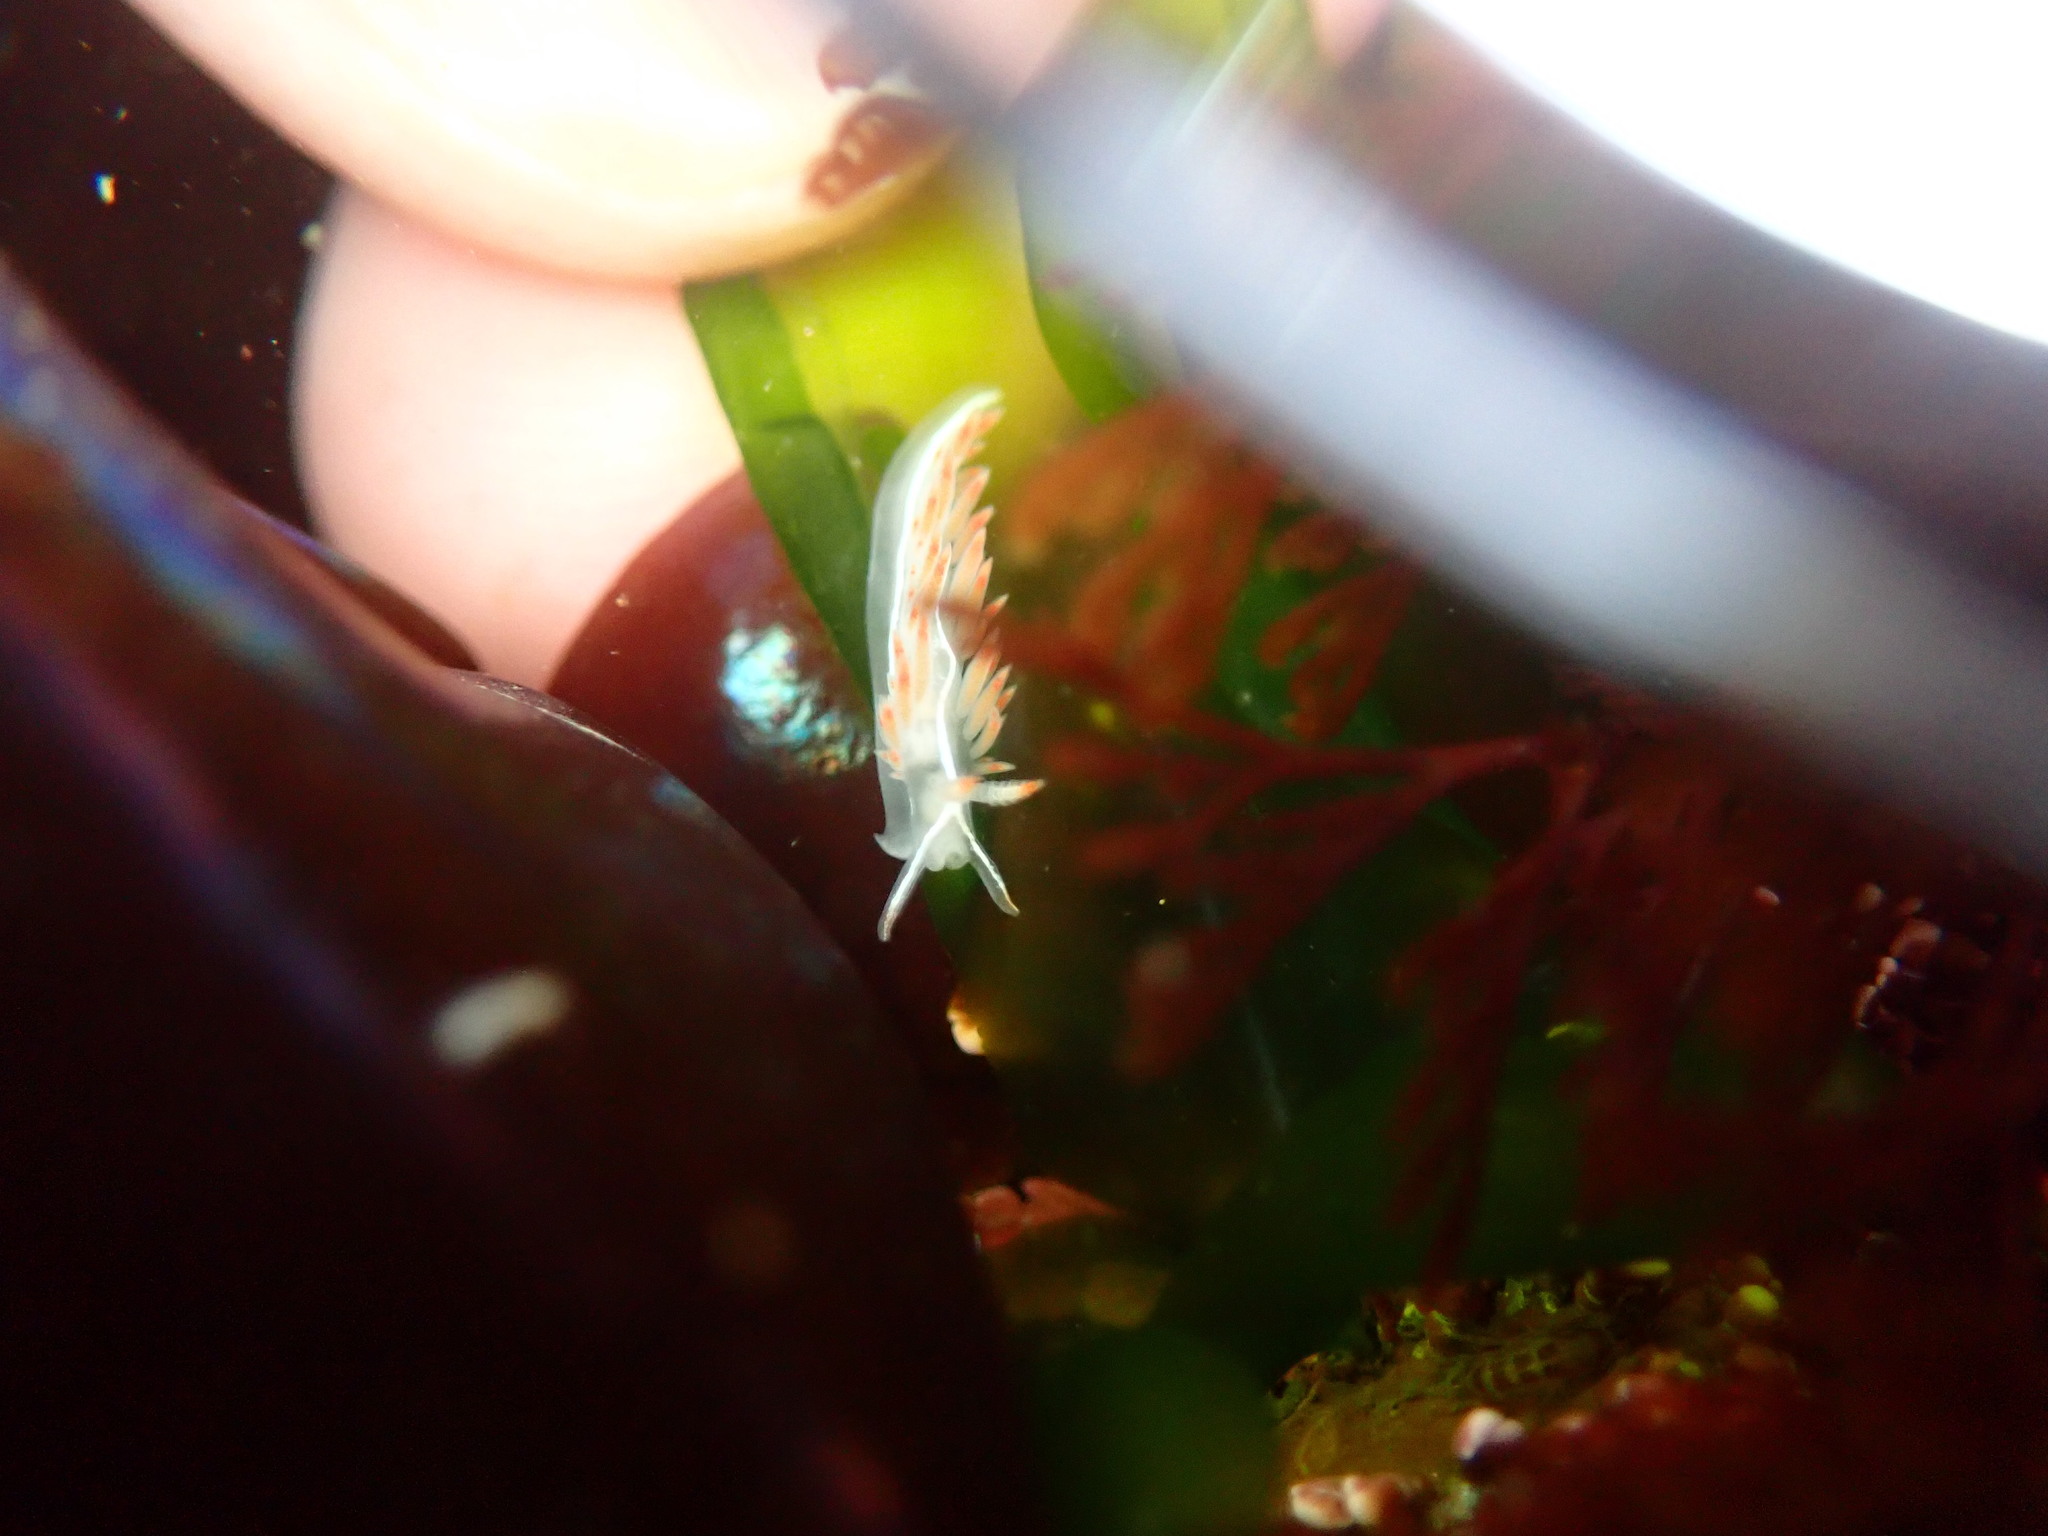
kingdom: Animalia
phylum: Mollusca
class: Gastropoda
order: Nudibranchia
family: Coryphellidae
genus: Coryphella
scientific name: Coryphella trilineata
